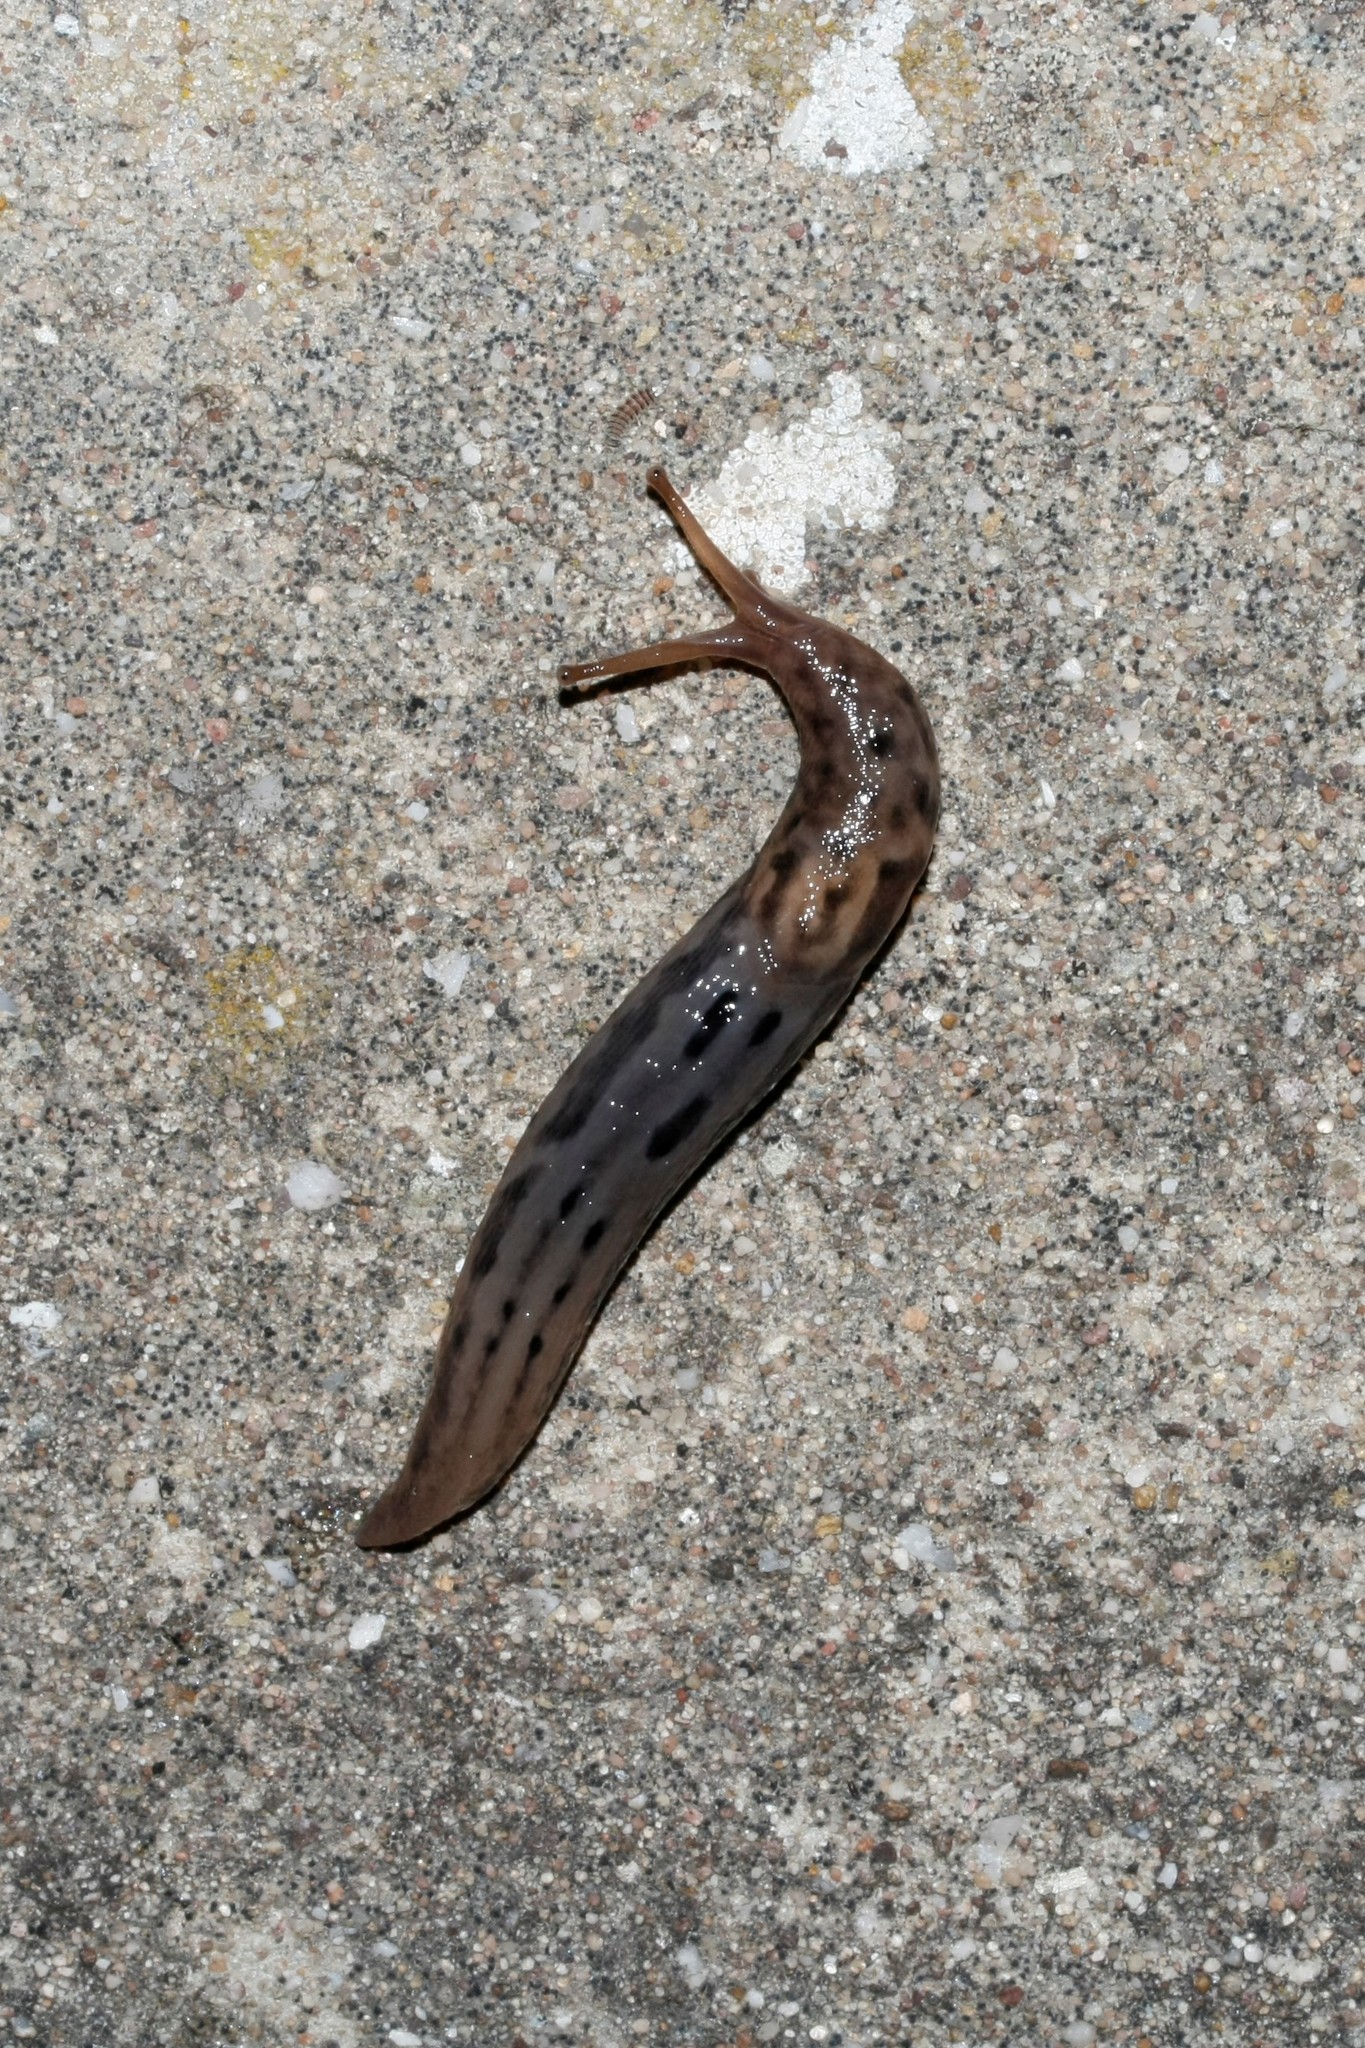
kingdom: Animalia
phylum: Mollusca
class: Gastropoda
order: Stylommatophora
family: Limacidae
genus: Limax
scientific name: Limax maximus
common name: Great grey slug
